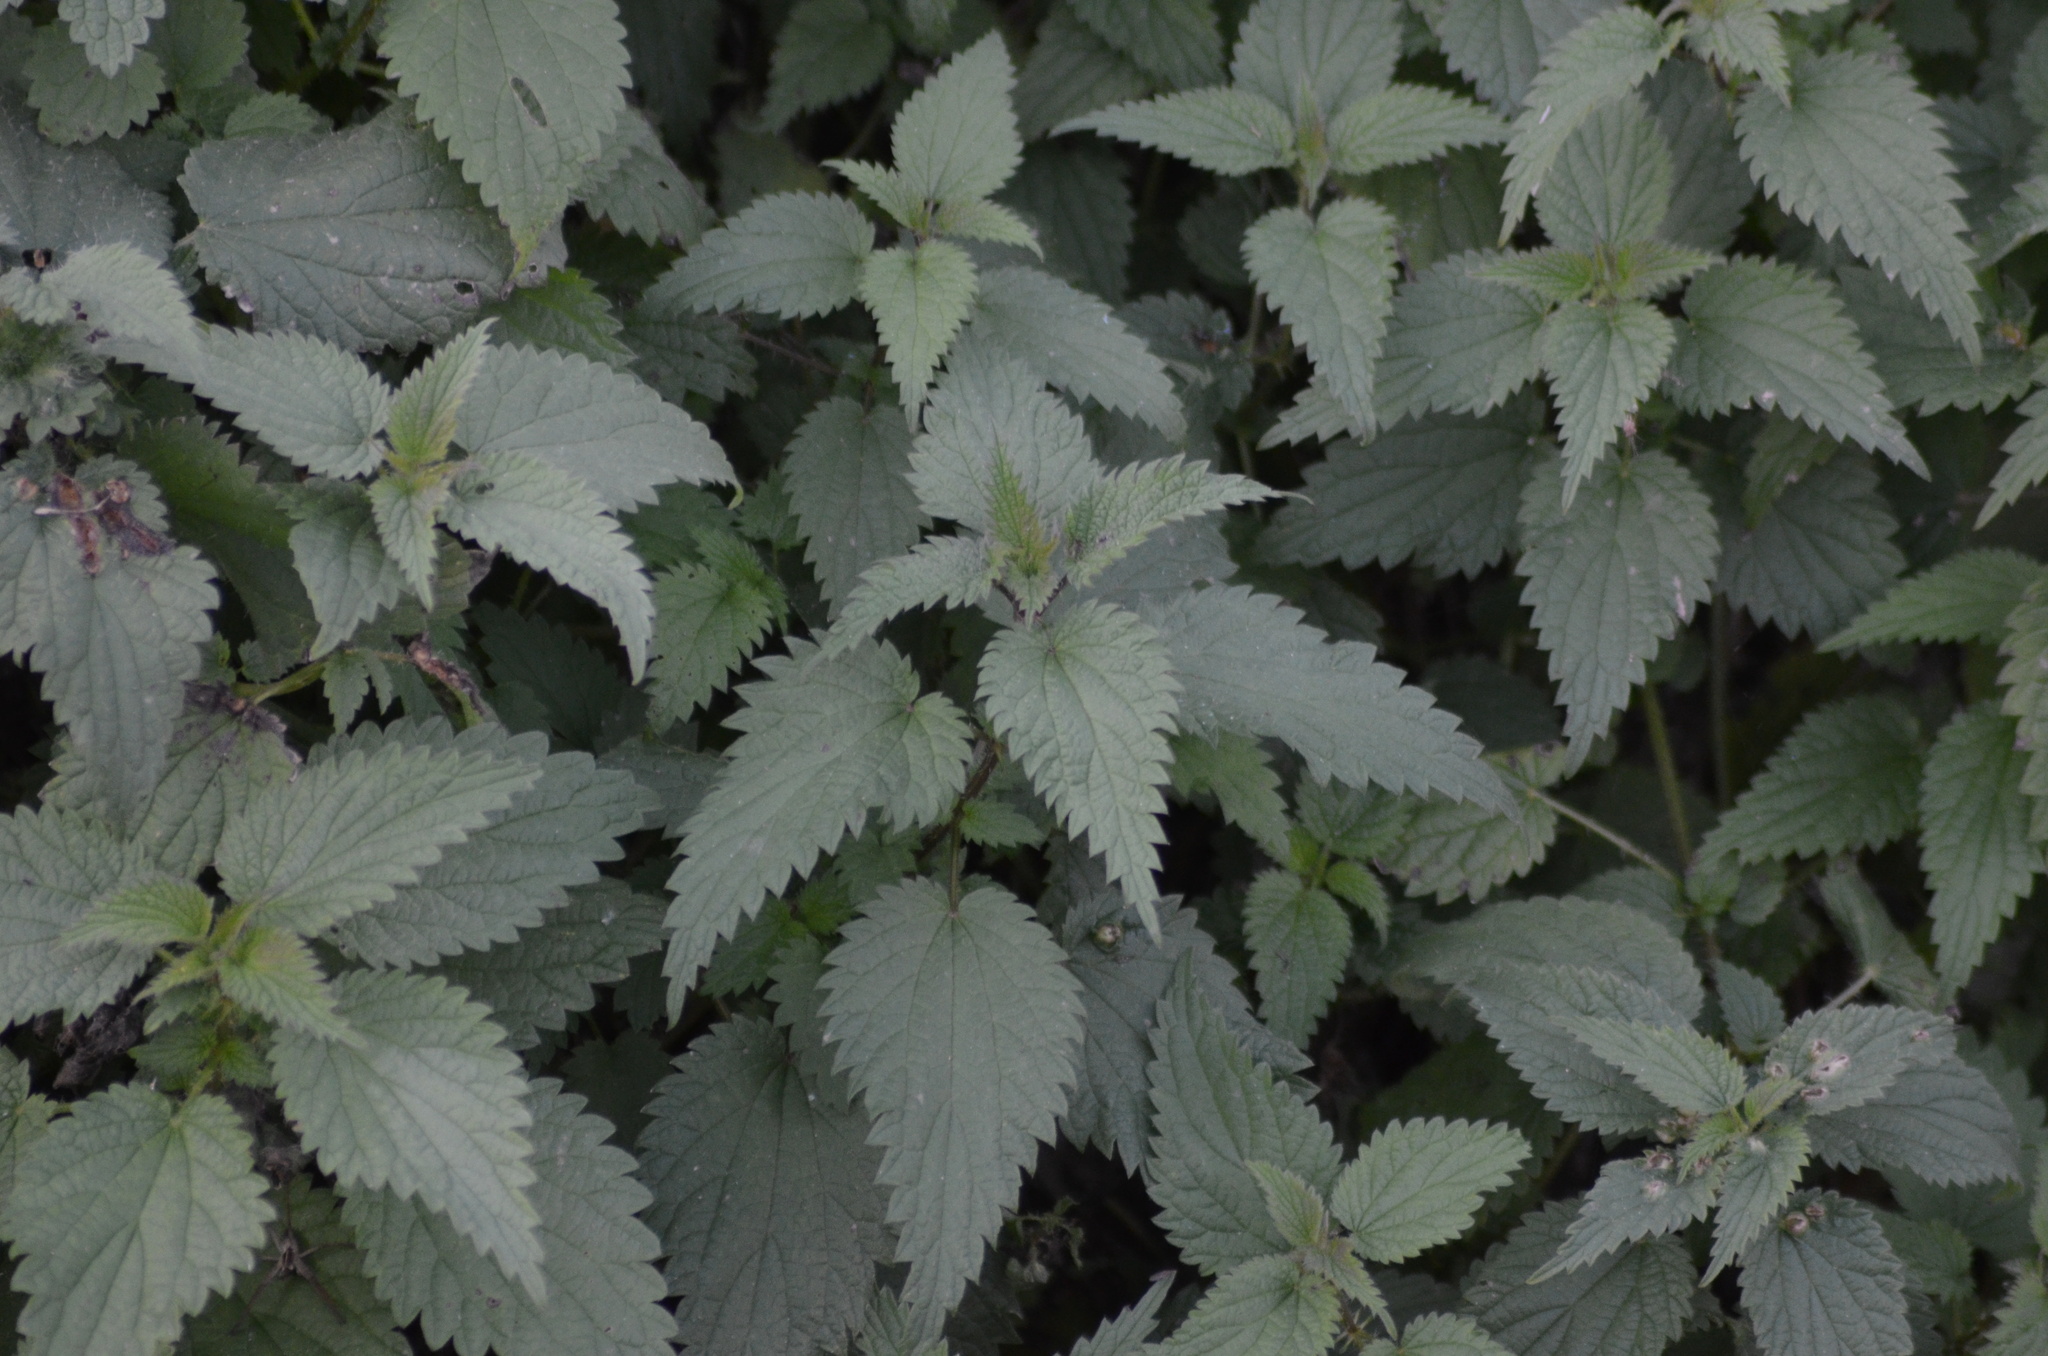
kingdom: Plantae
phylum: Tracheophyta
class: Magnoliopsida
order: Rosales
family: Urticaceae
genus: Urtica
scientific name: Urtica dioica
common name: Common nettle
